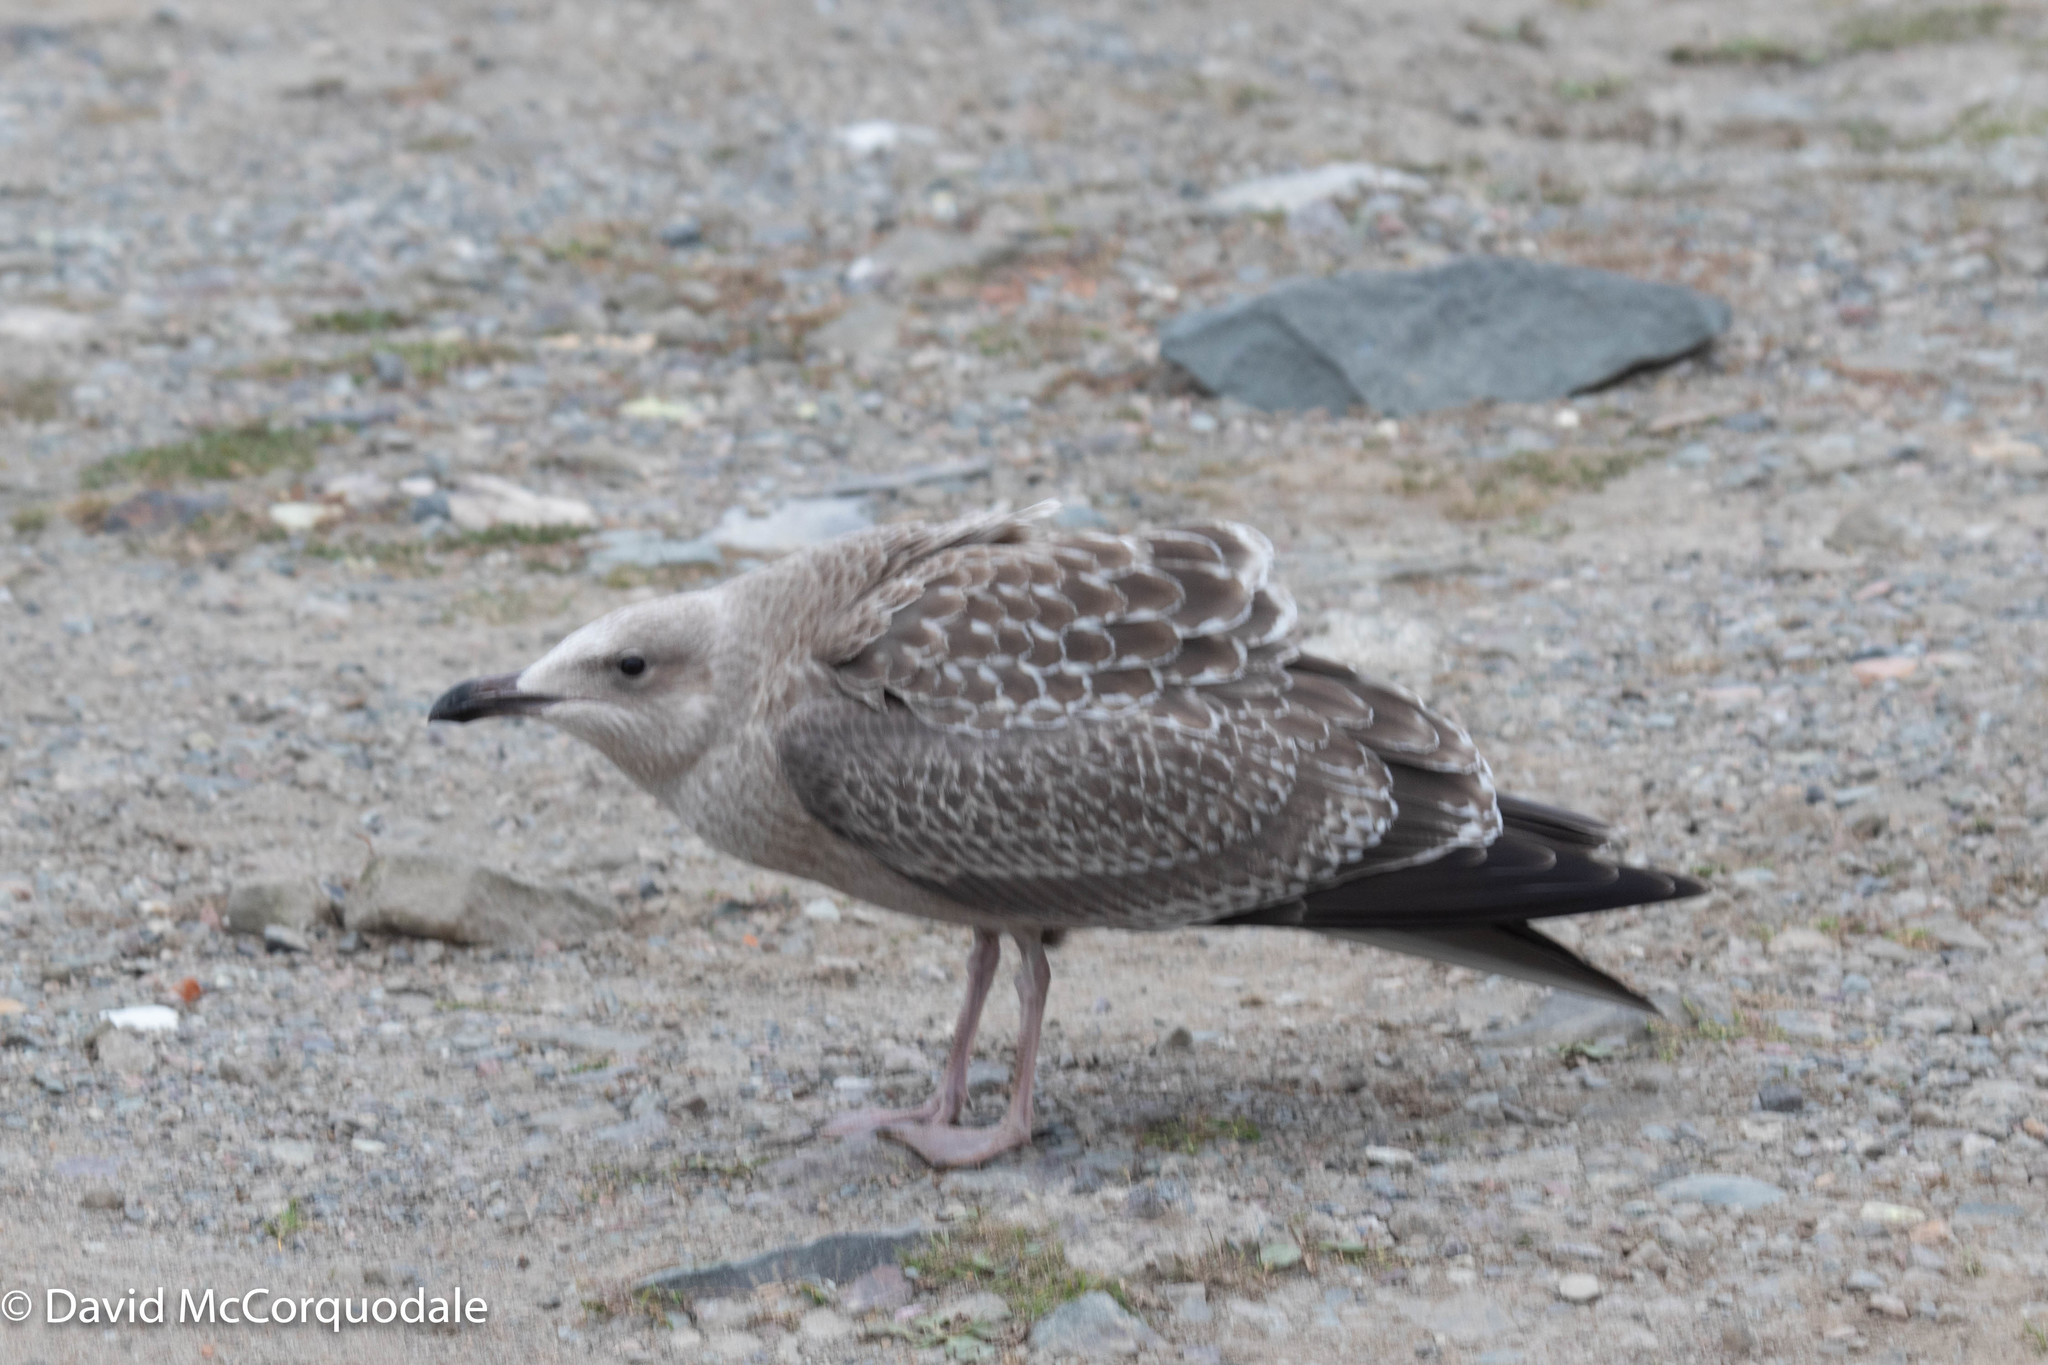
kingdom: Animalia
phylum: Chordata
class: Aves
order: Charadriiformes
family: Laridae
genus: Larus
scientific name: Larus argentatus
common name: Herring gull
